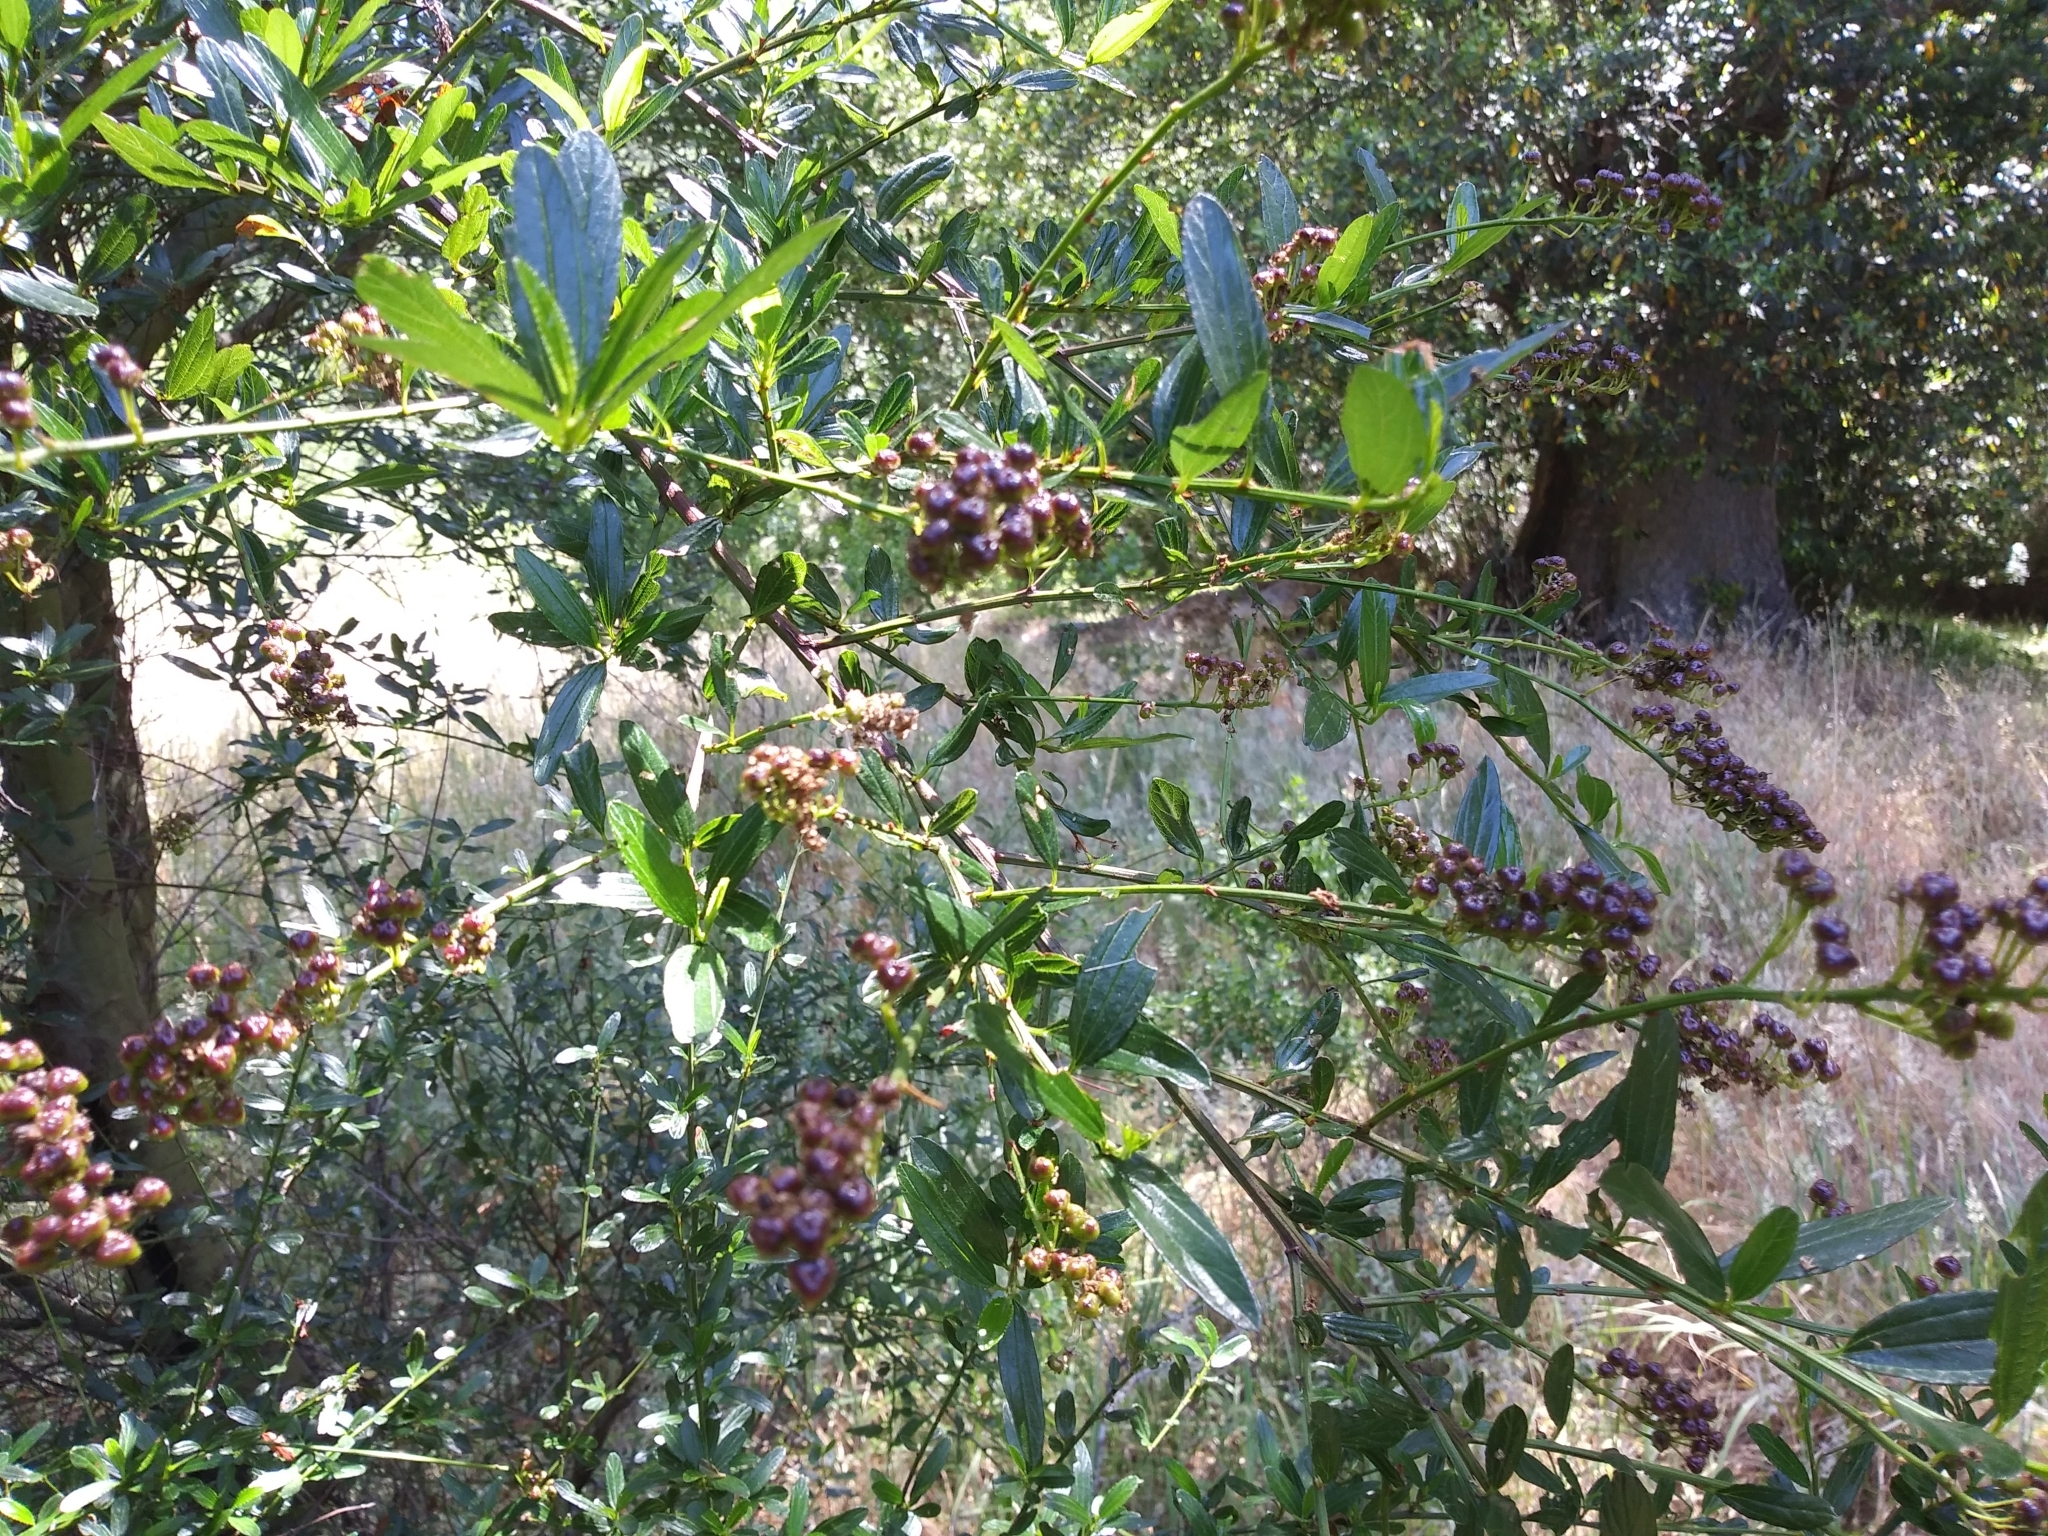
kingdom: Plantae
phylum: Tracheophyta
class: Magnoliopsida
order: Rosales
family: Rhamnaceae
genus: Ceanothus
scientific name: Ceanothus thyrsiflorus
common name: California-lilac
